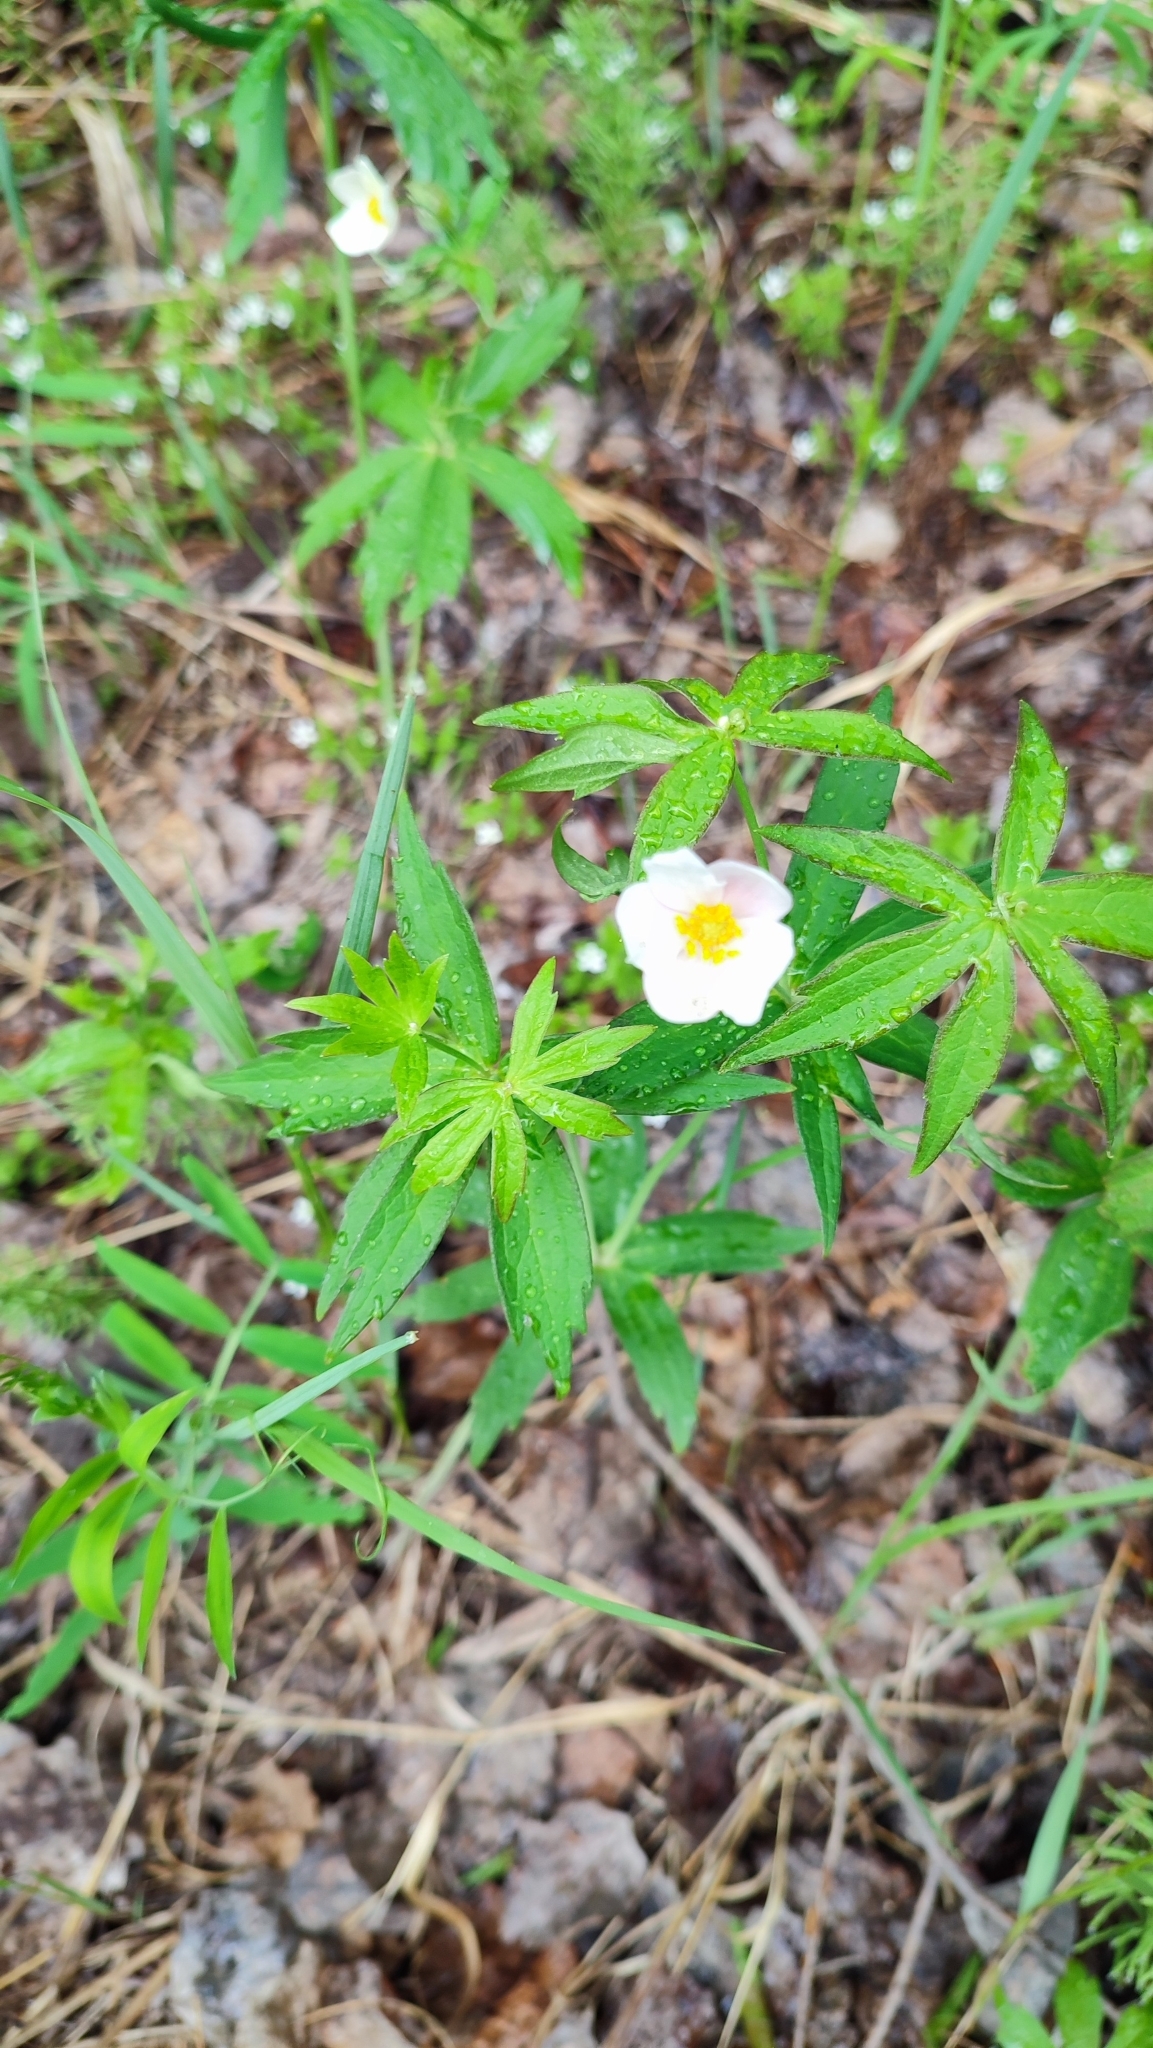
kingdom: Plantae
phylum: Tracheophyta
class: Magnoliopsida
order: Ranunculales
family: Ranunculaceae
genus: Anemonastrum
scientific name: Anemonastrum dichotomum
